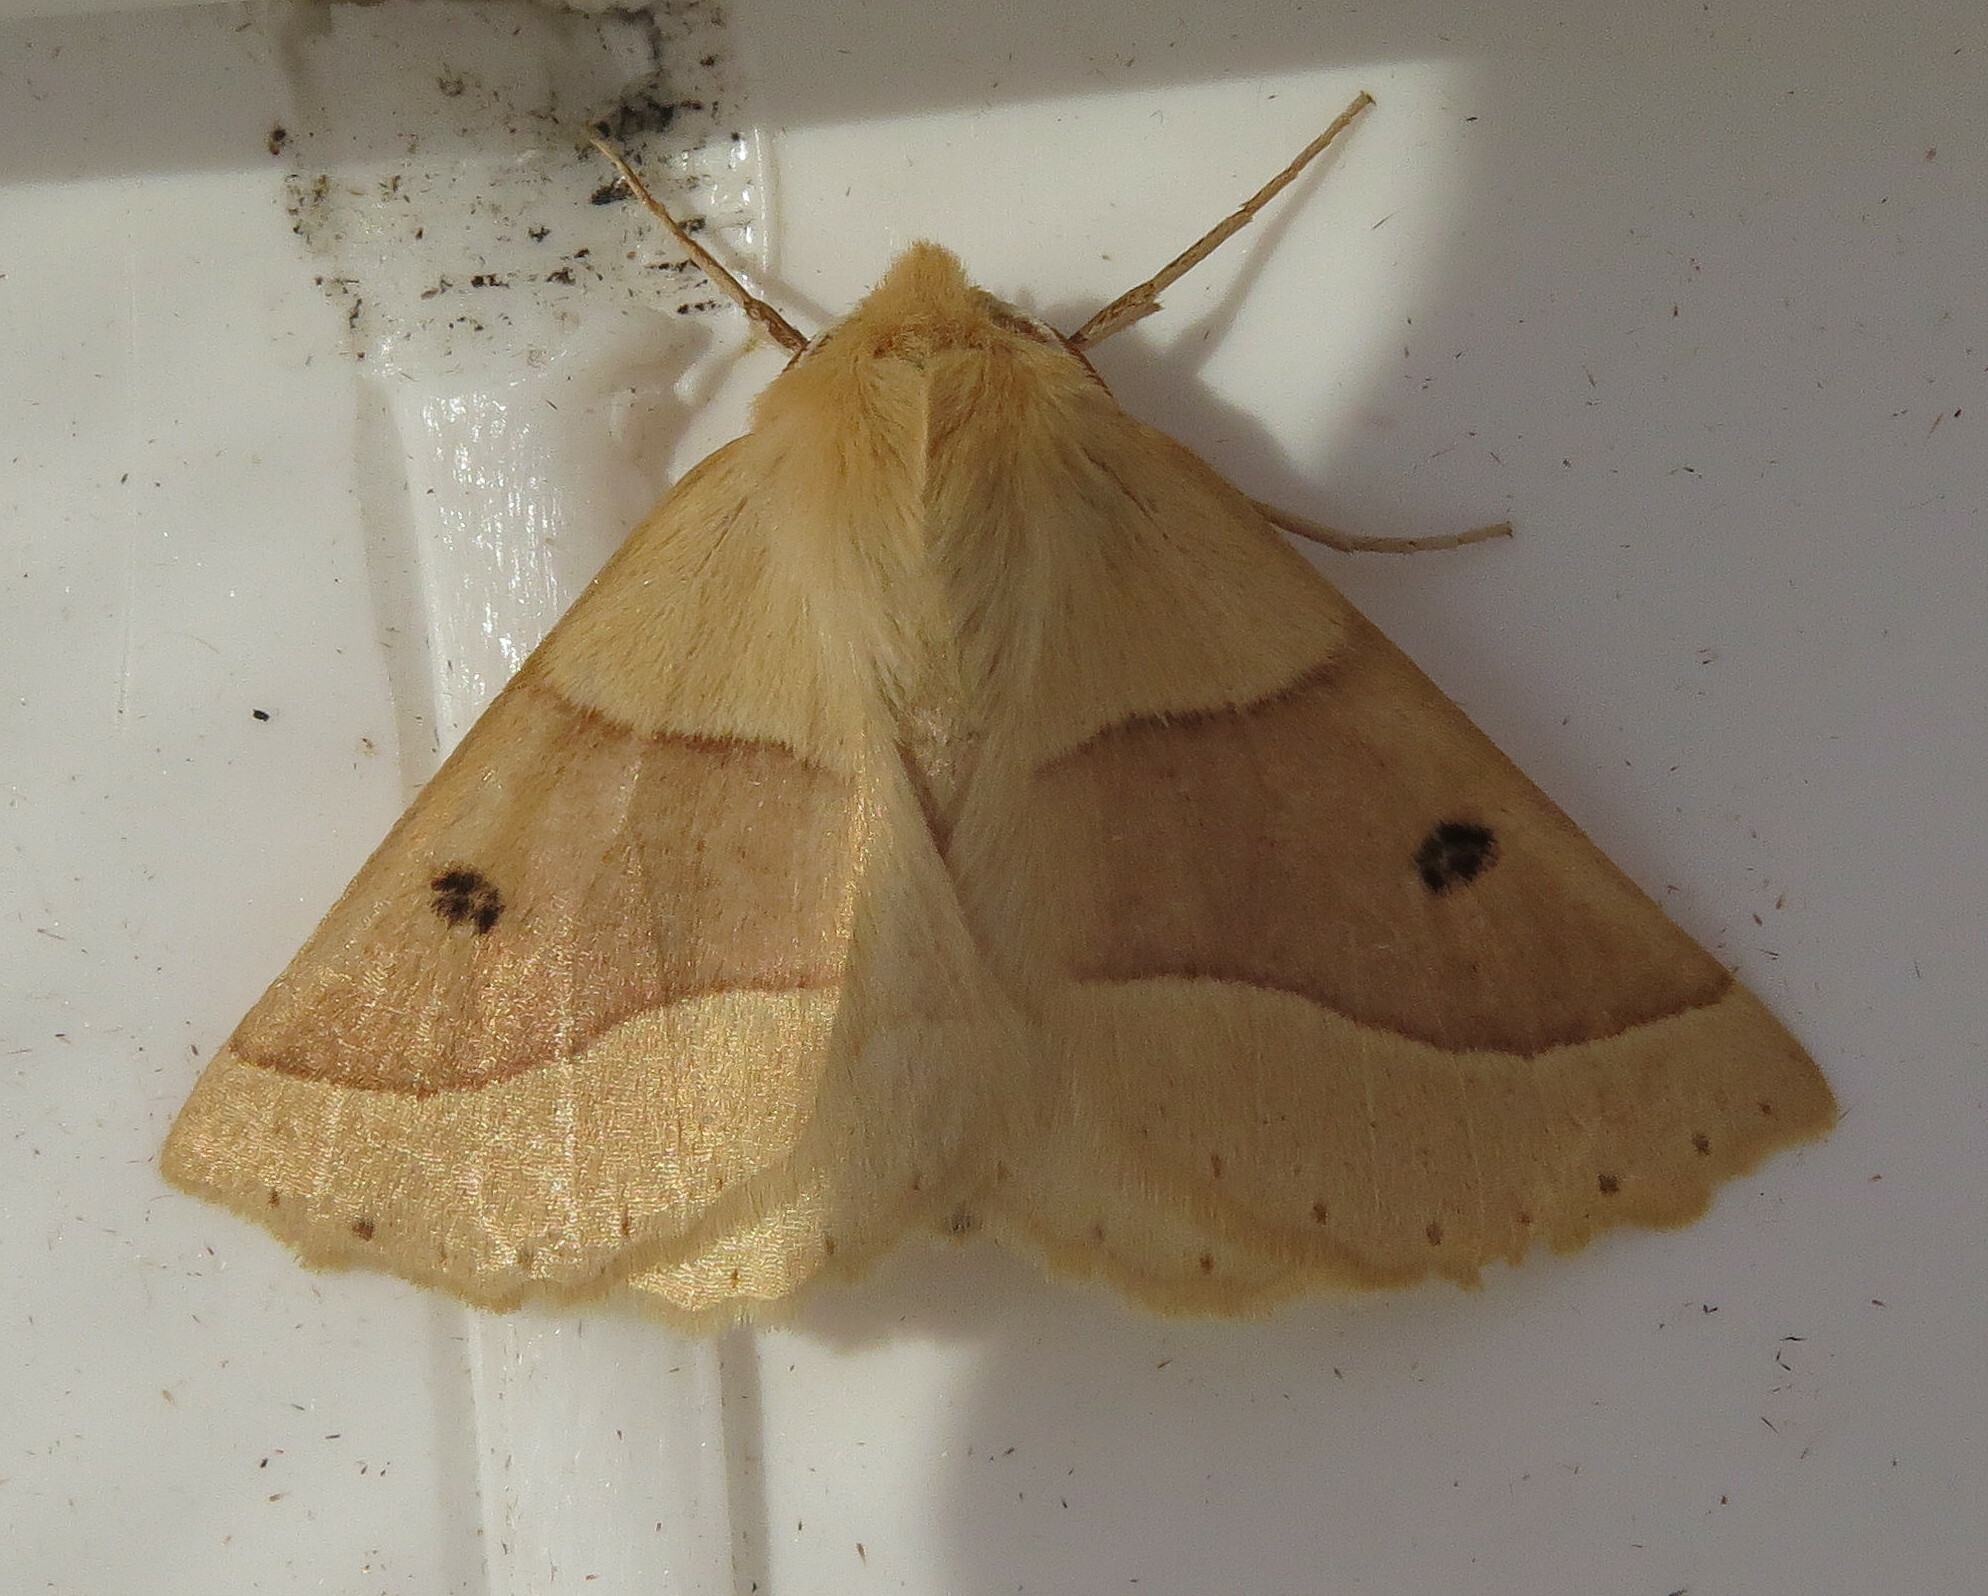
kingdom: Animalia
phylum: Arthropoda
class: Insecta
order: Lepidoptera
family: Geometridae
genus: Crocallis
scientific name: Crocallis elinguaria
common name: Scalloped oak
